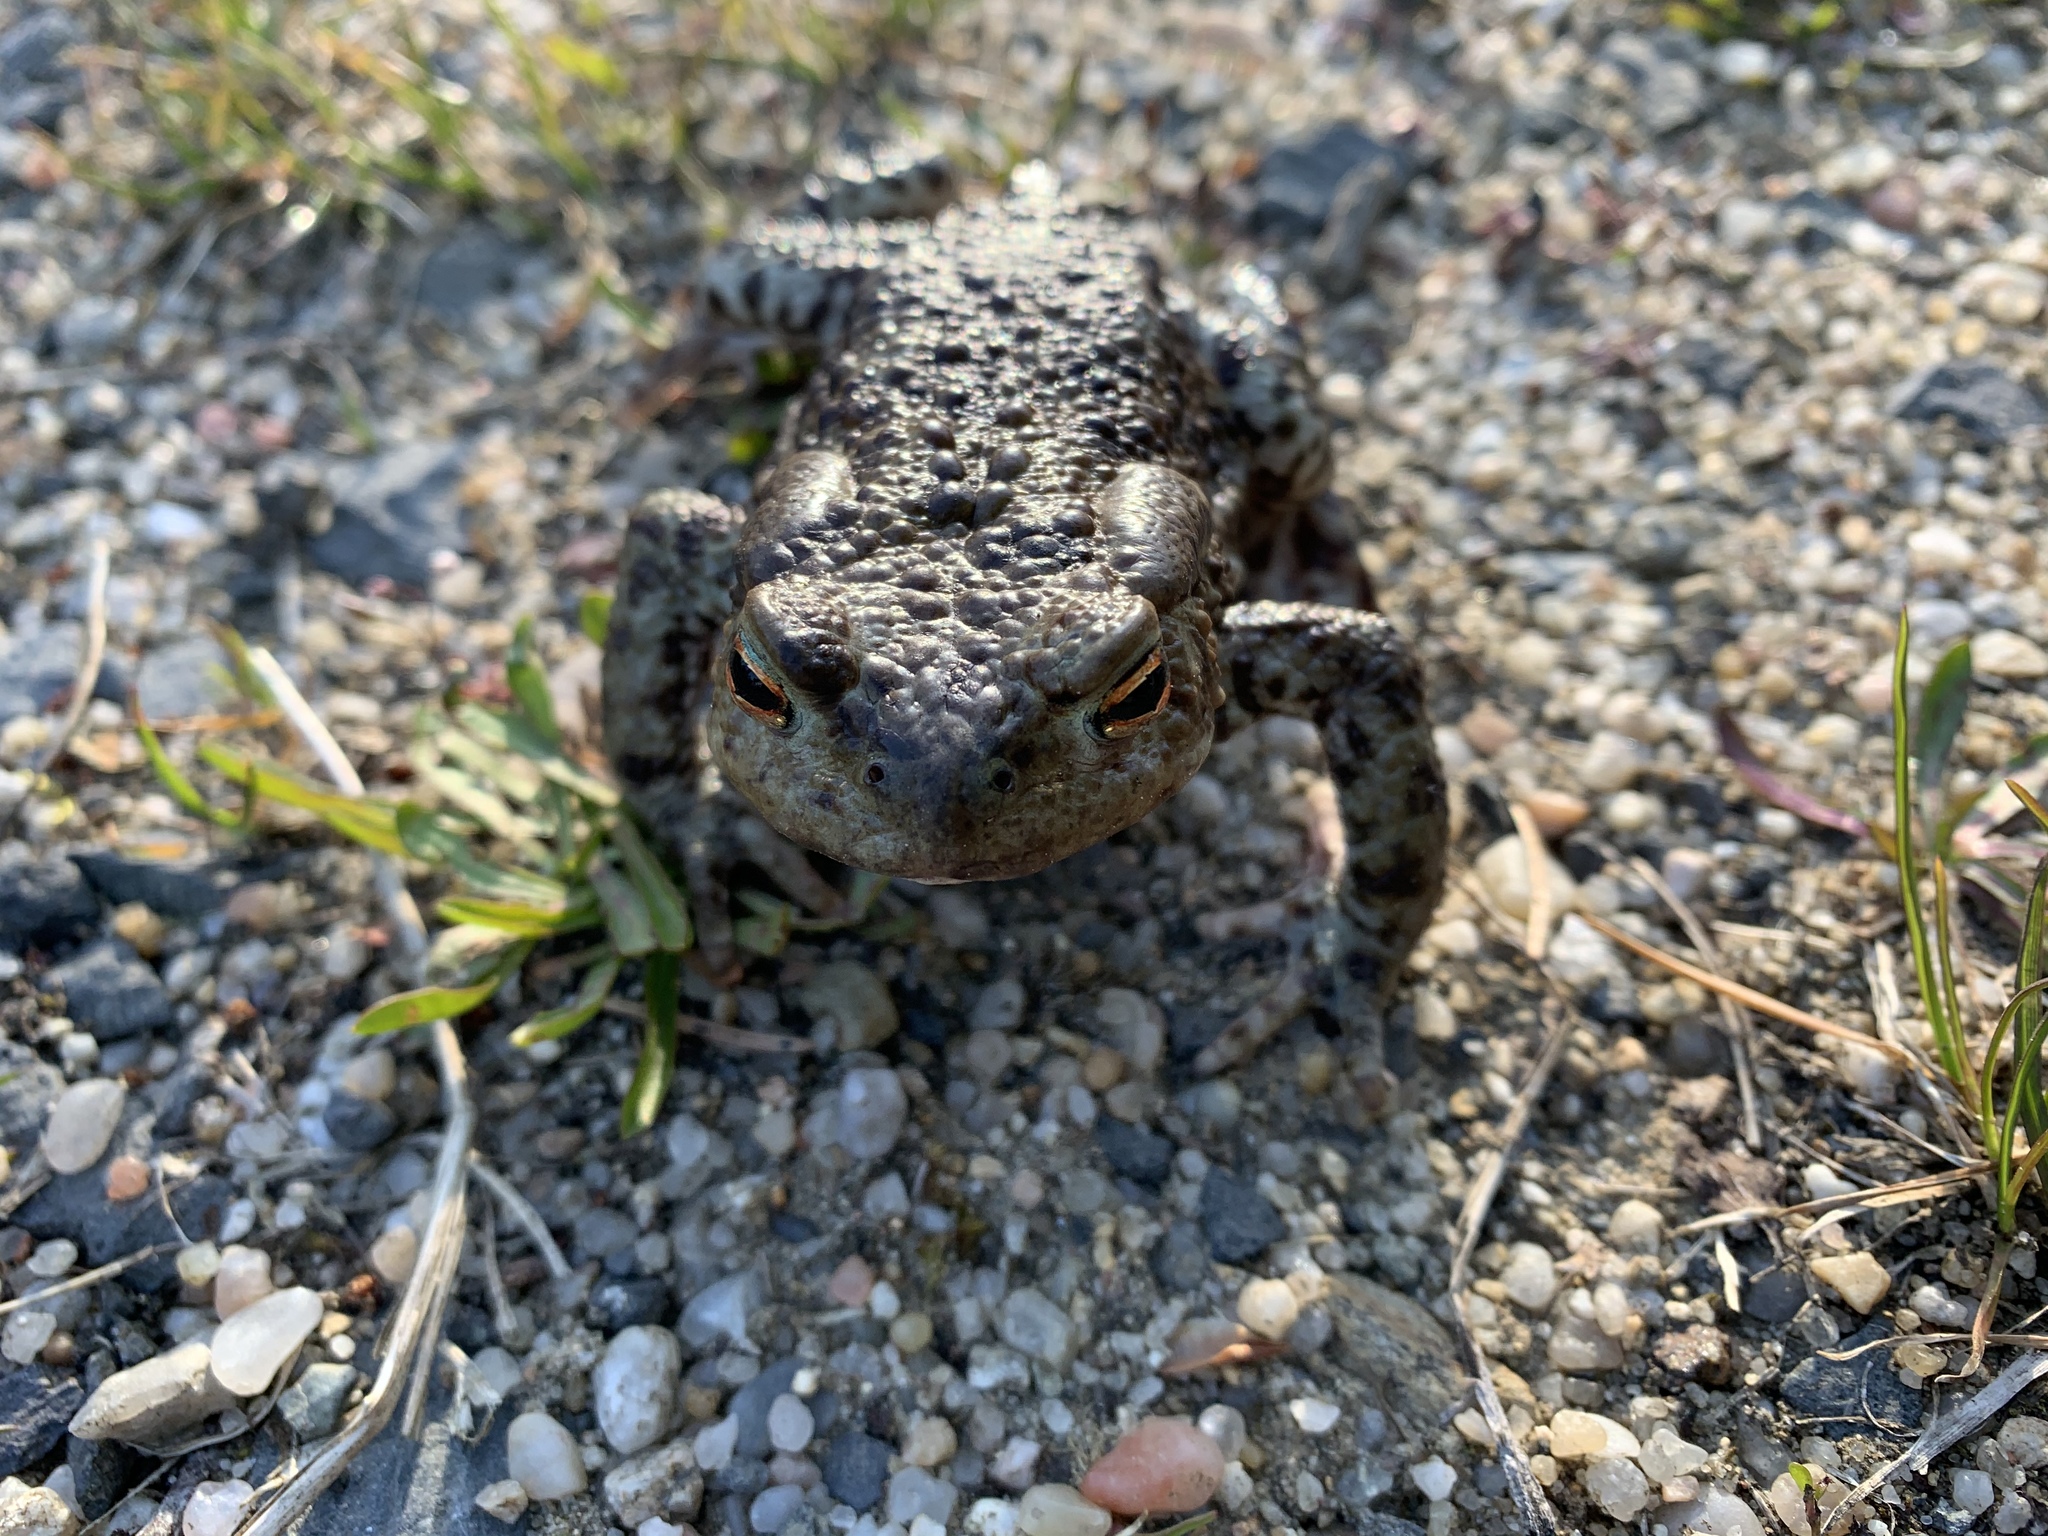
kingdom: Animalia
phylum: Chordata
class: Amphibia
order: Anura
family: Bufonidae
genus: Bufo
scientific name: Bufo bufo
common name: Common toad
